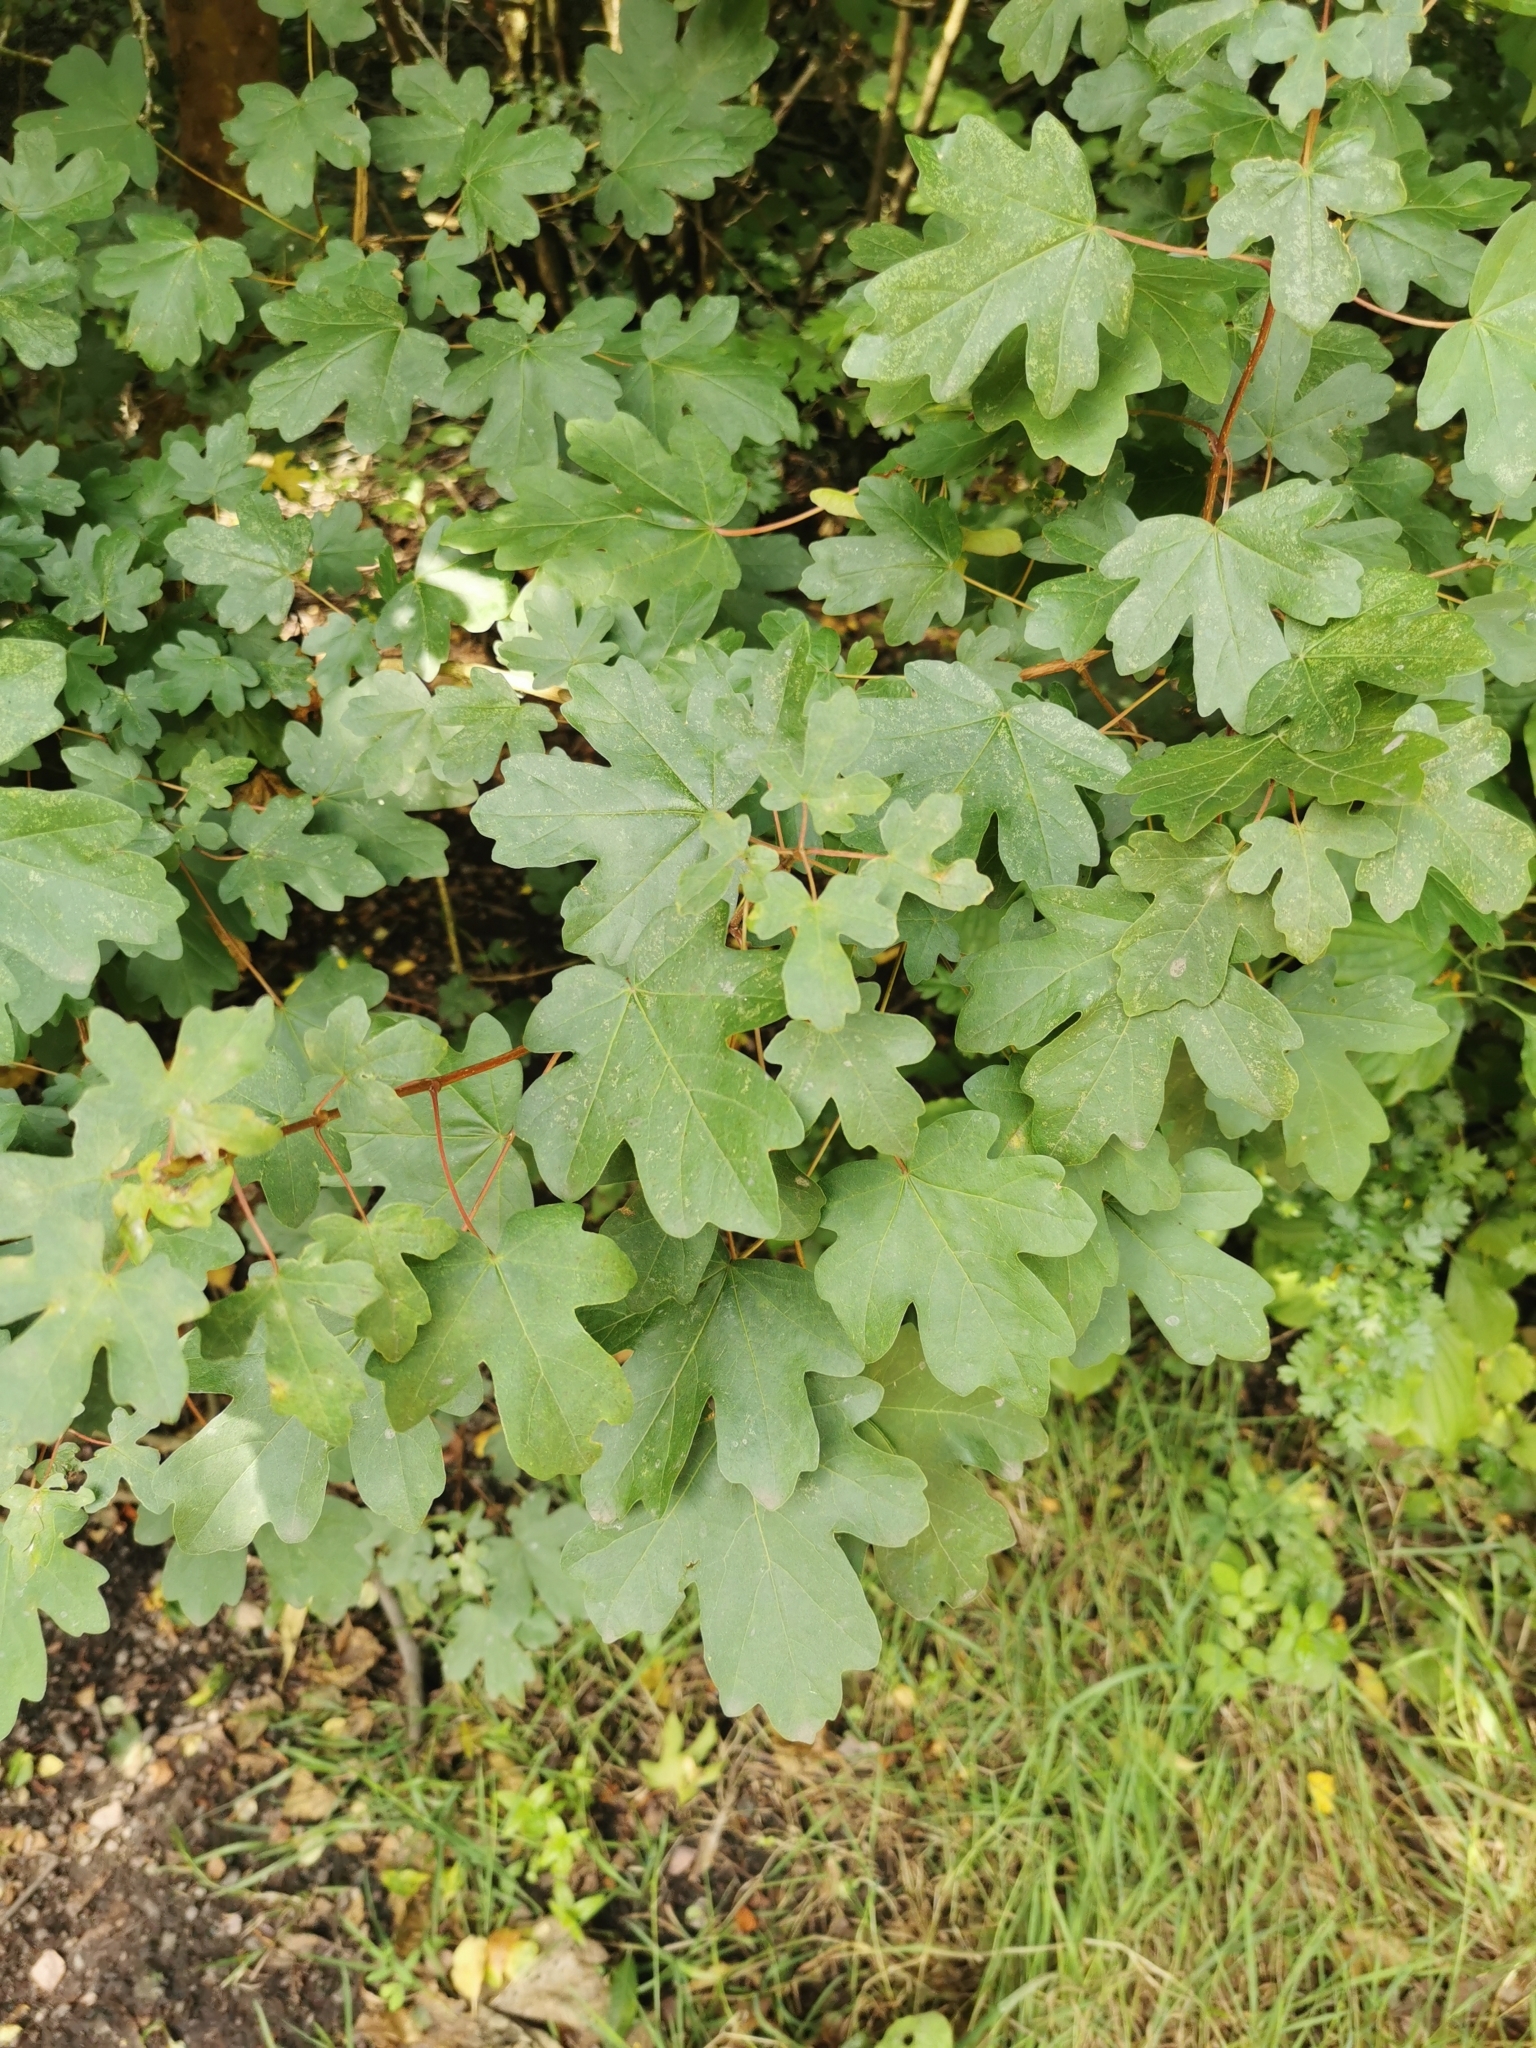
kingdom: Plantae
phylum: Tracheophyta
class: Magnoliopsida
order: Sapindales
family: Sapindaceae
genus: Acer
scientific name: Acer campestre
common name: Field maple
